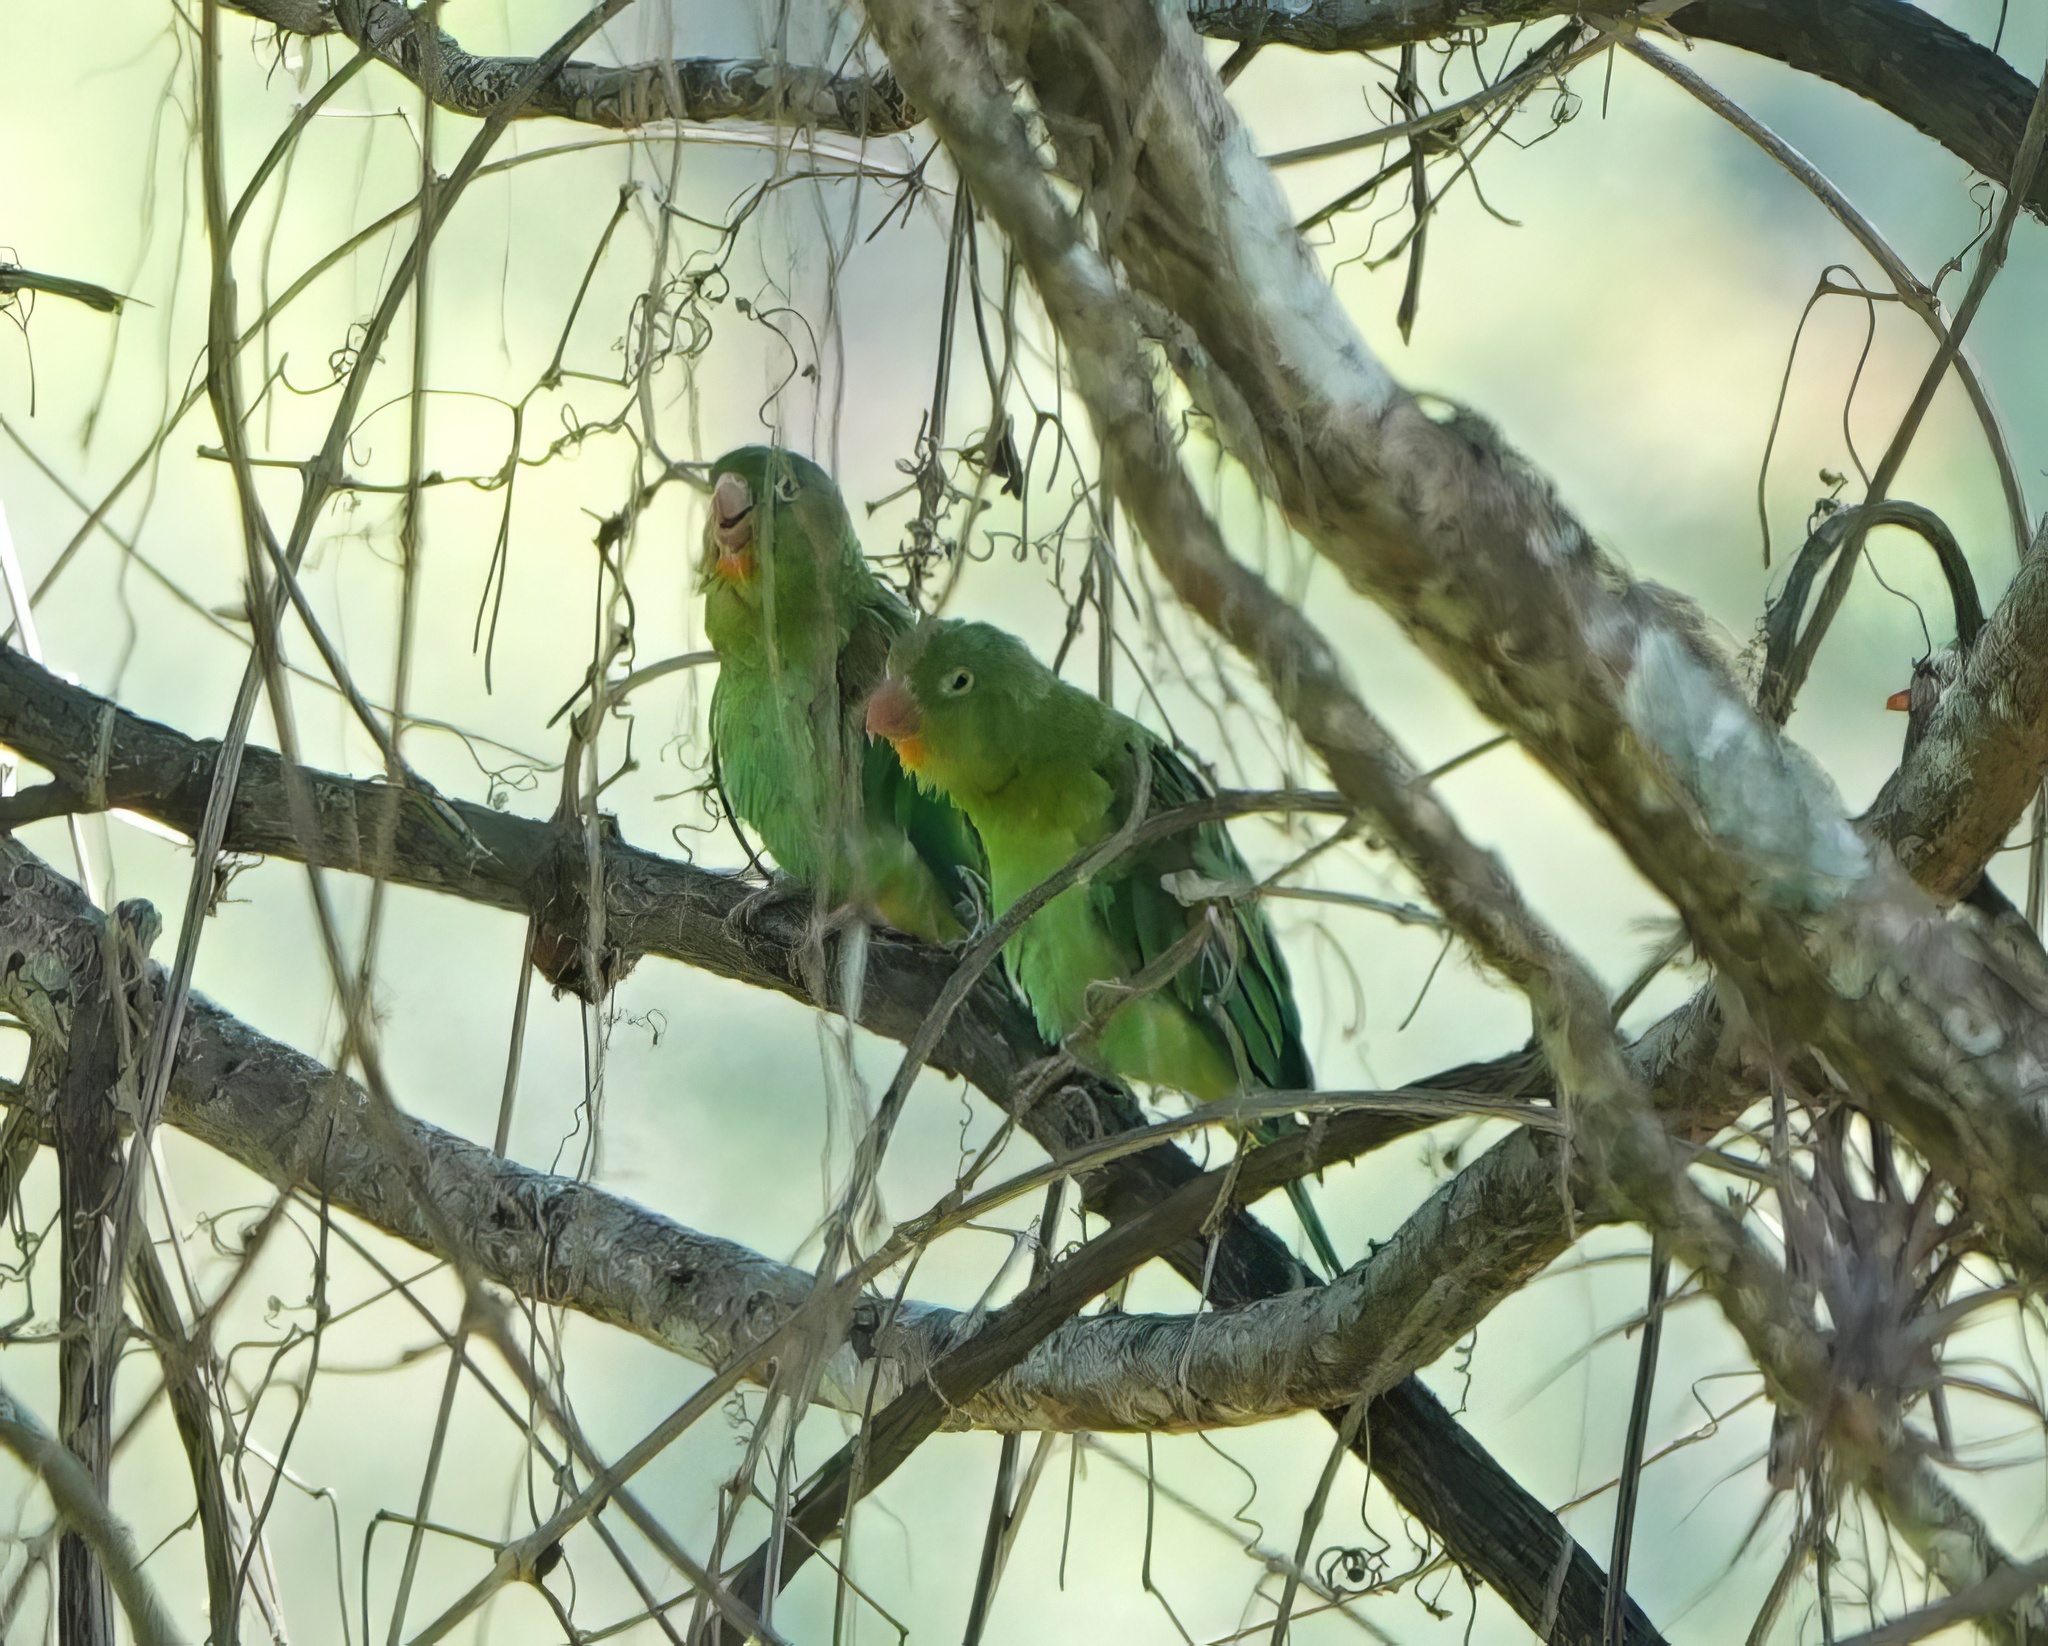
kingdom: Animalia
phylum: Chordata
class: Aves
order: Psittaciformes
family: Psittacidae
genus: Brotogeris
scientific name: Brotogeris jugularis
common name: Orange-chinned parakeet
